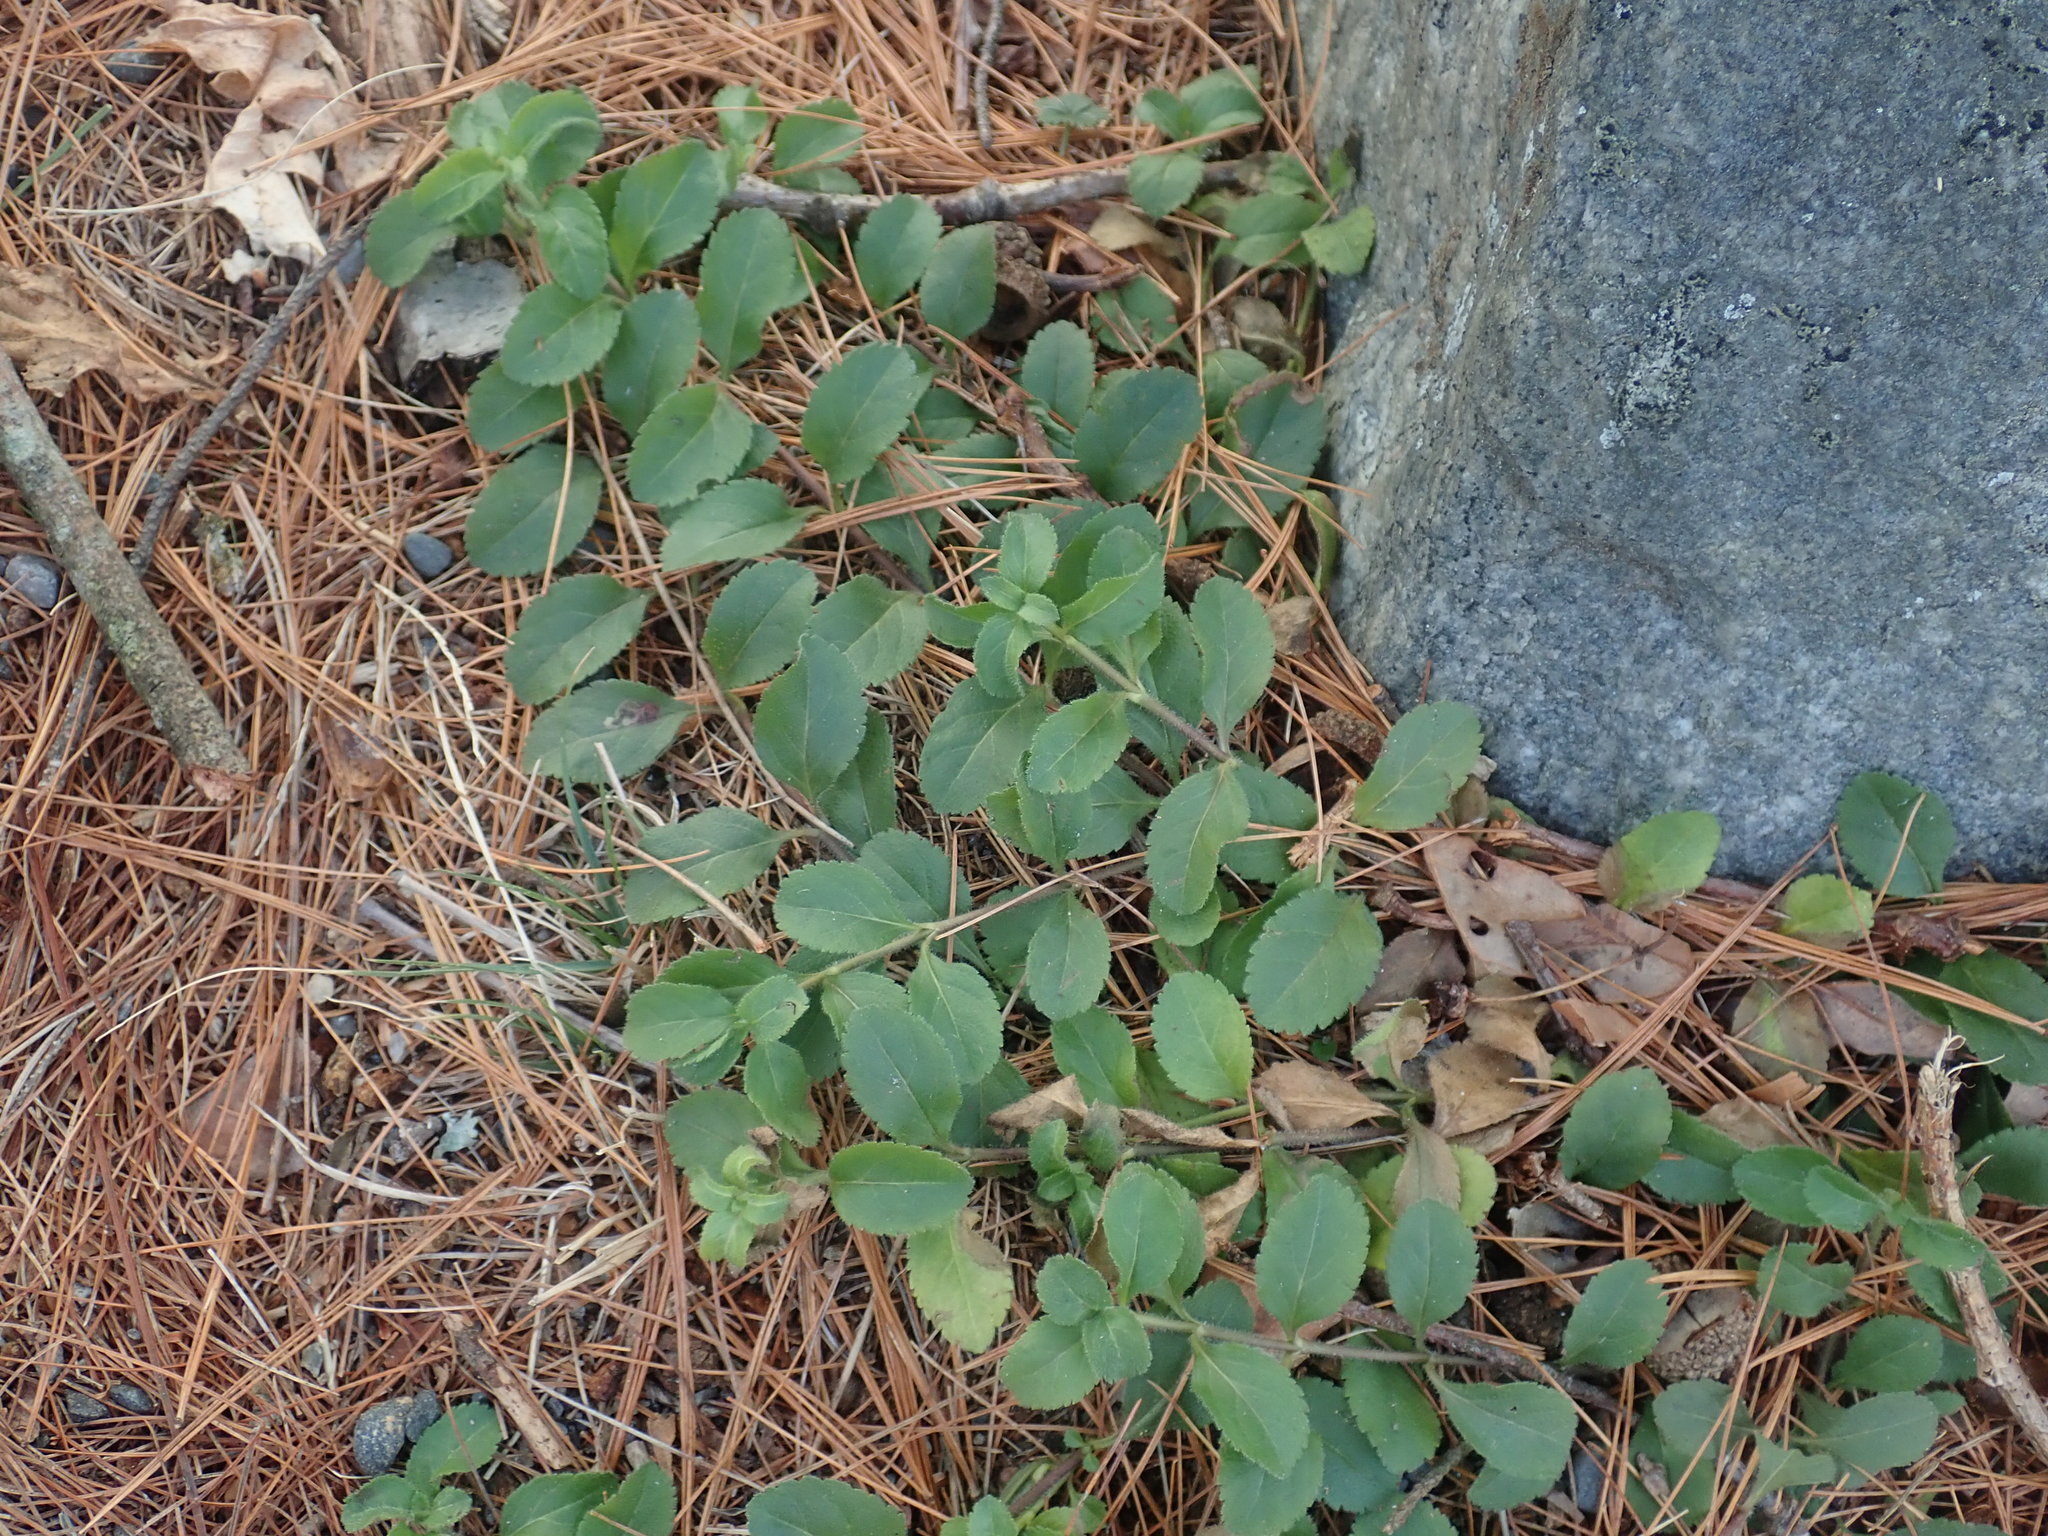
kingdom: Plantae
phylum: Tracheophyta
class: Magnoliopsida
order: Lamiales
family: Plantaginaceae
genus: Veronica
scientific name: Veronica officinalis
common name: Common speedwell
